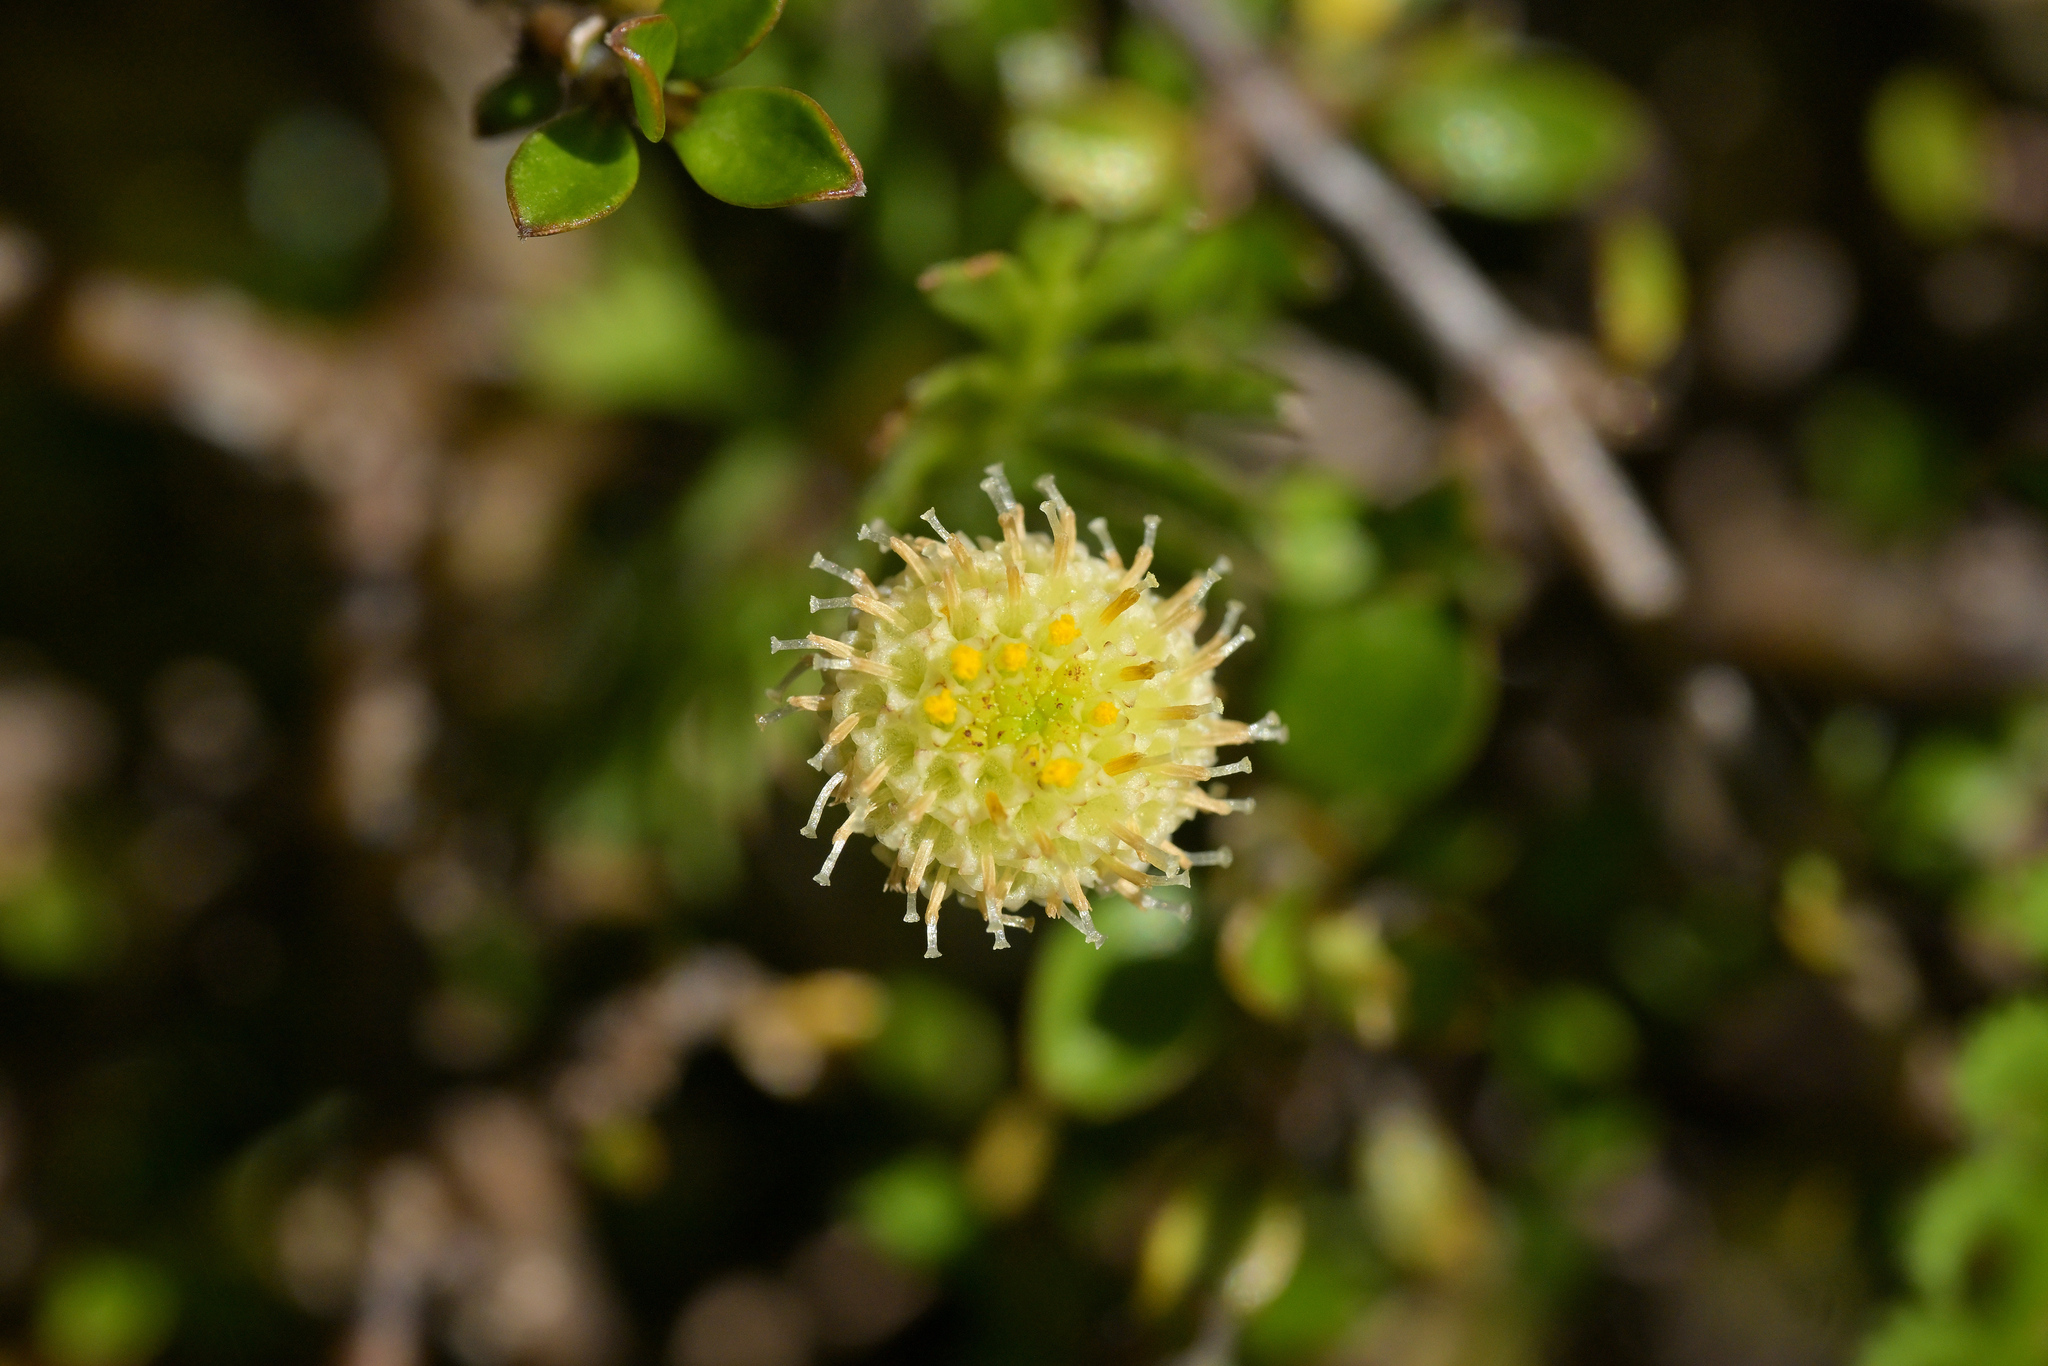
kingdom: Plantae
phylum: Tracheophyta
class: Magnoliopsida
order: Asterales
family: Asteraceae
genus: Leptinella
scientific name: Leptinella squalida
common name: New zealand brass-buttons
